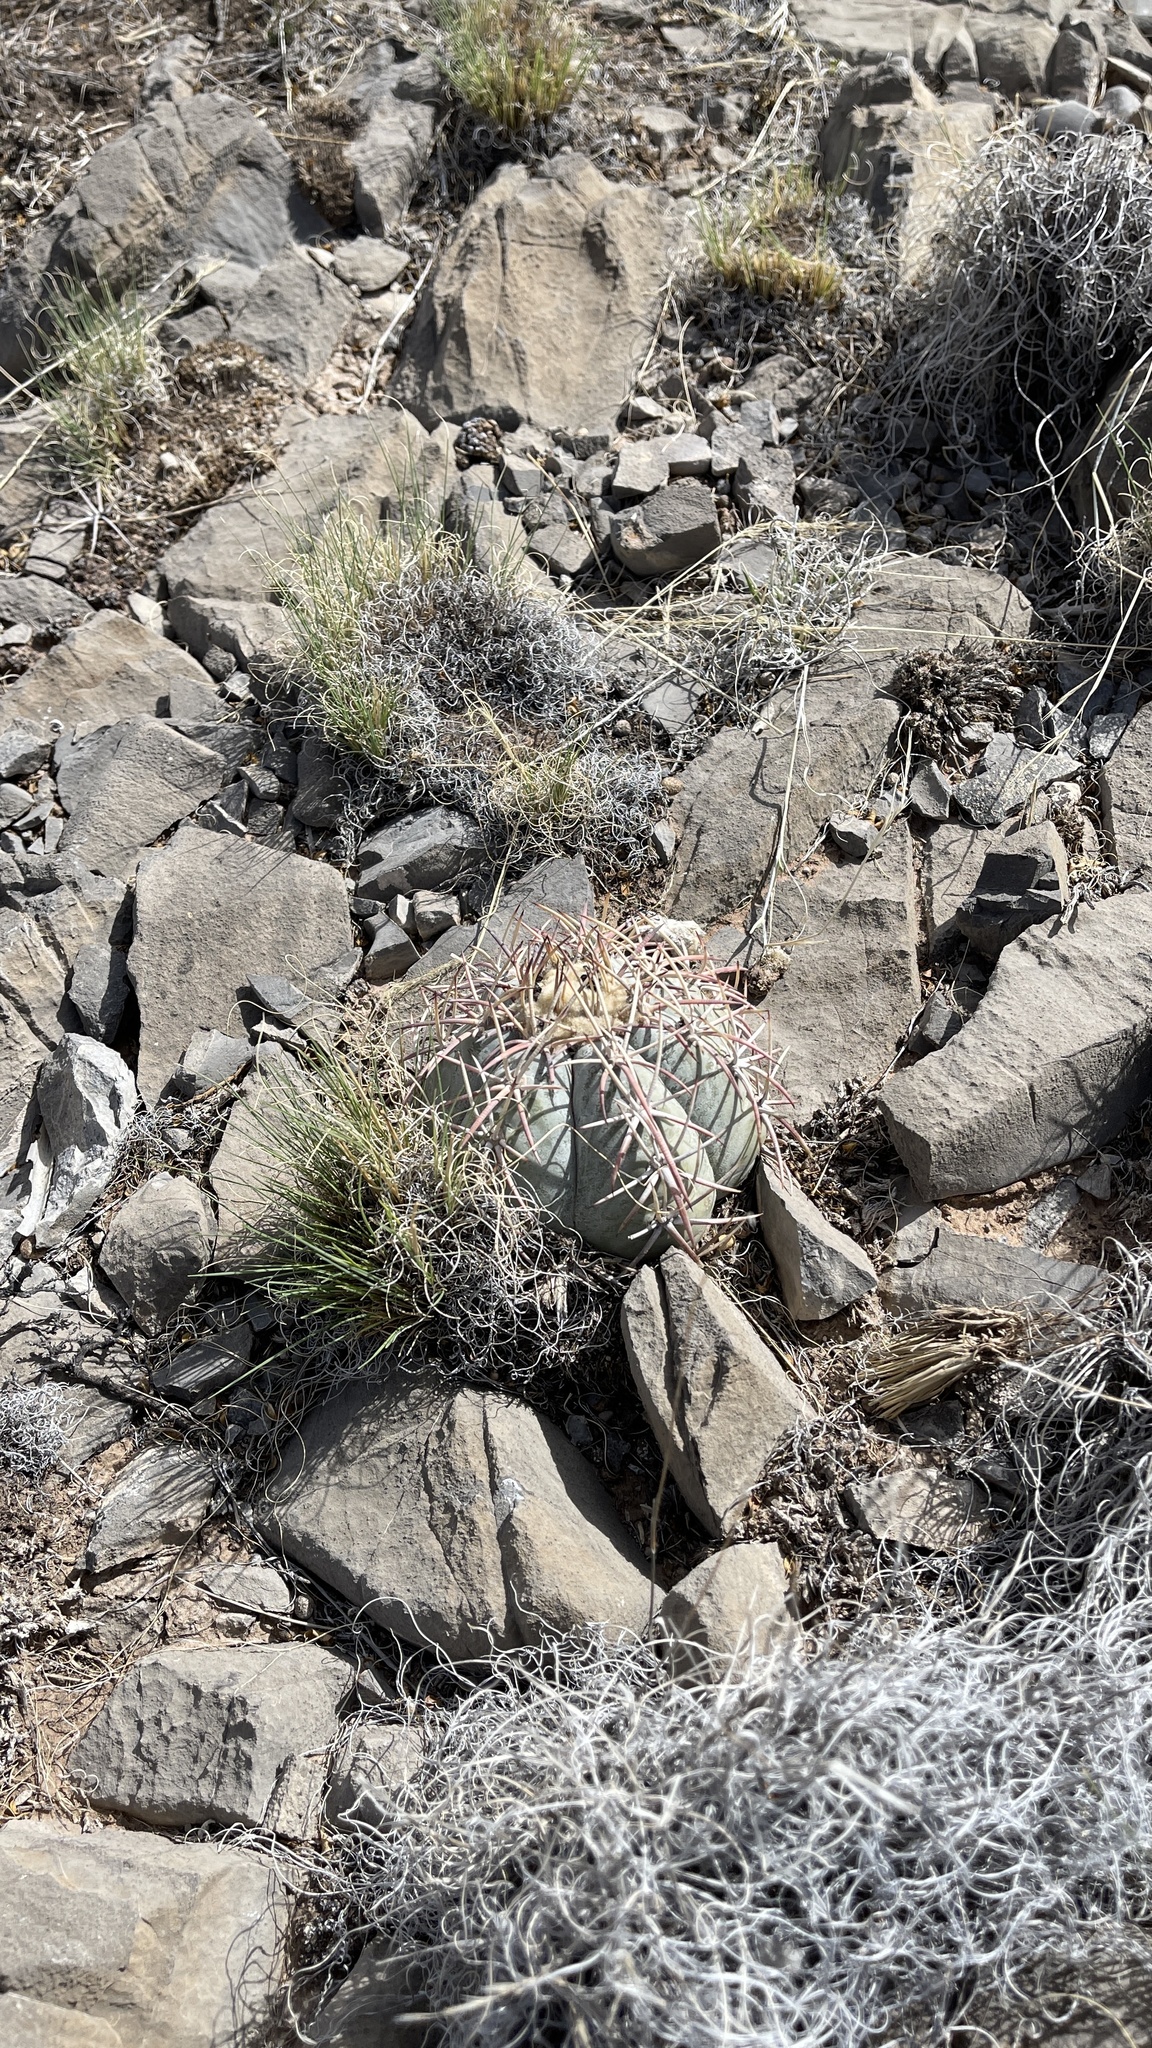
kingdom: Plantae
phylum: Tracheophyta
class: Magnoliopsida
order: Caryophyllales
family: Cactaceae
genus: Echinocactus
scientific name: Echinocactus horizonthalonius
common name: Devilshead
